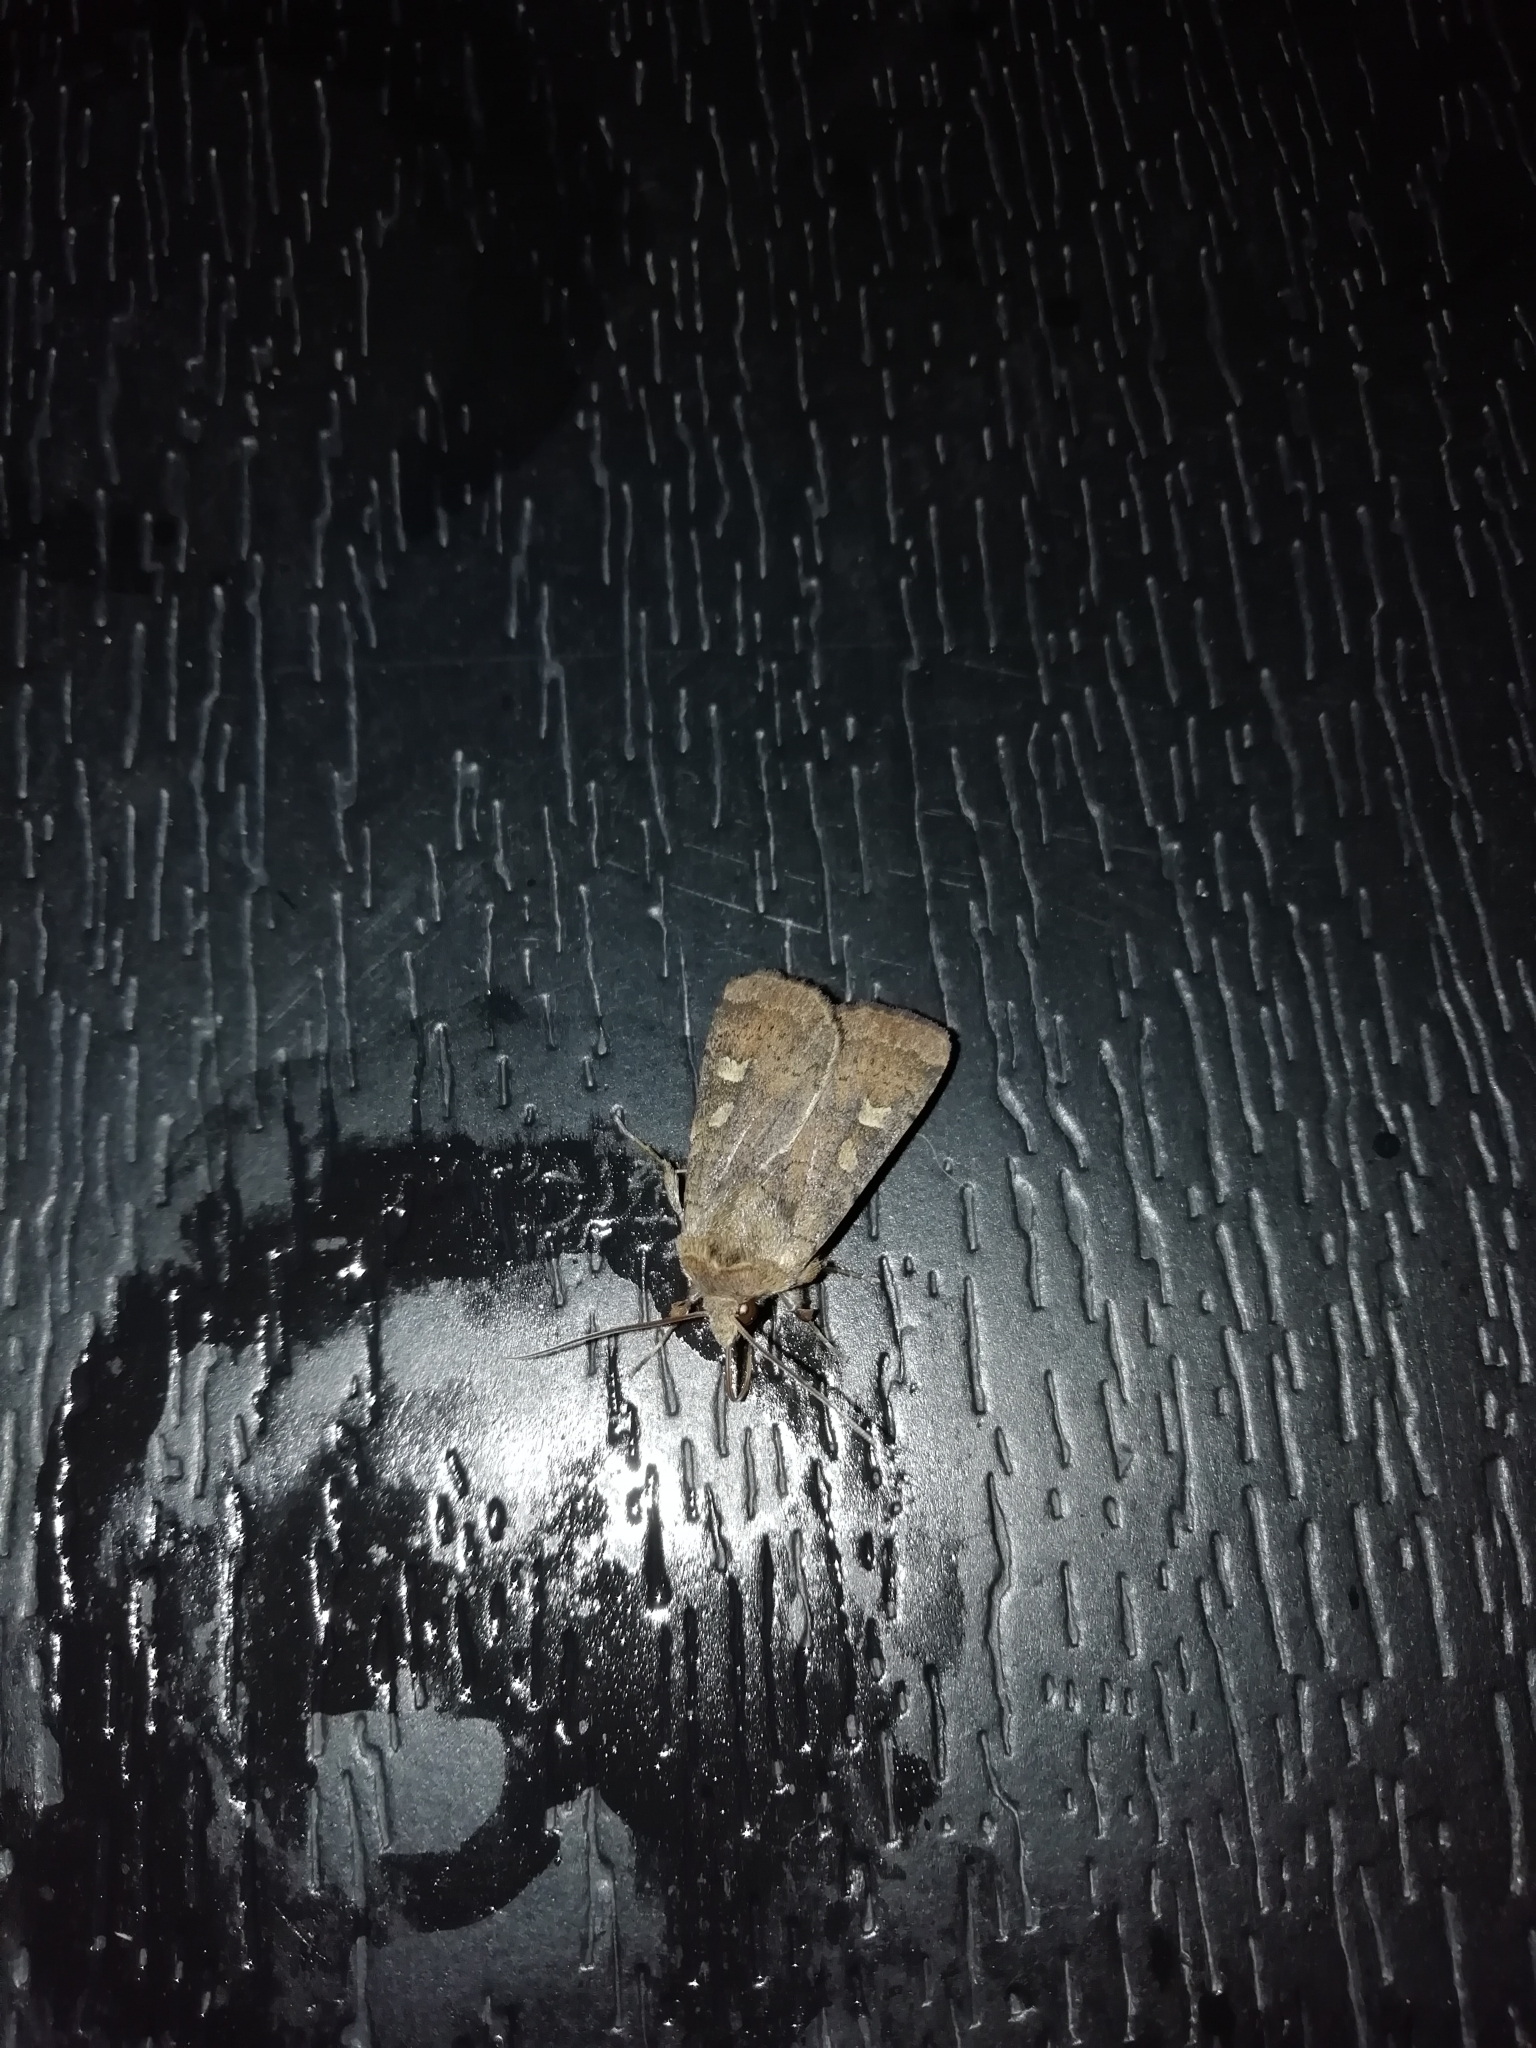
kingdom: Animalia
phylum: Arthropoda
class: Insecta
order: Lepidoptera
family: Noctuidae
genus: Xestia
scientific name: Xestia xanthographa
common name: Square-spot rustic
